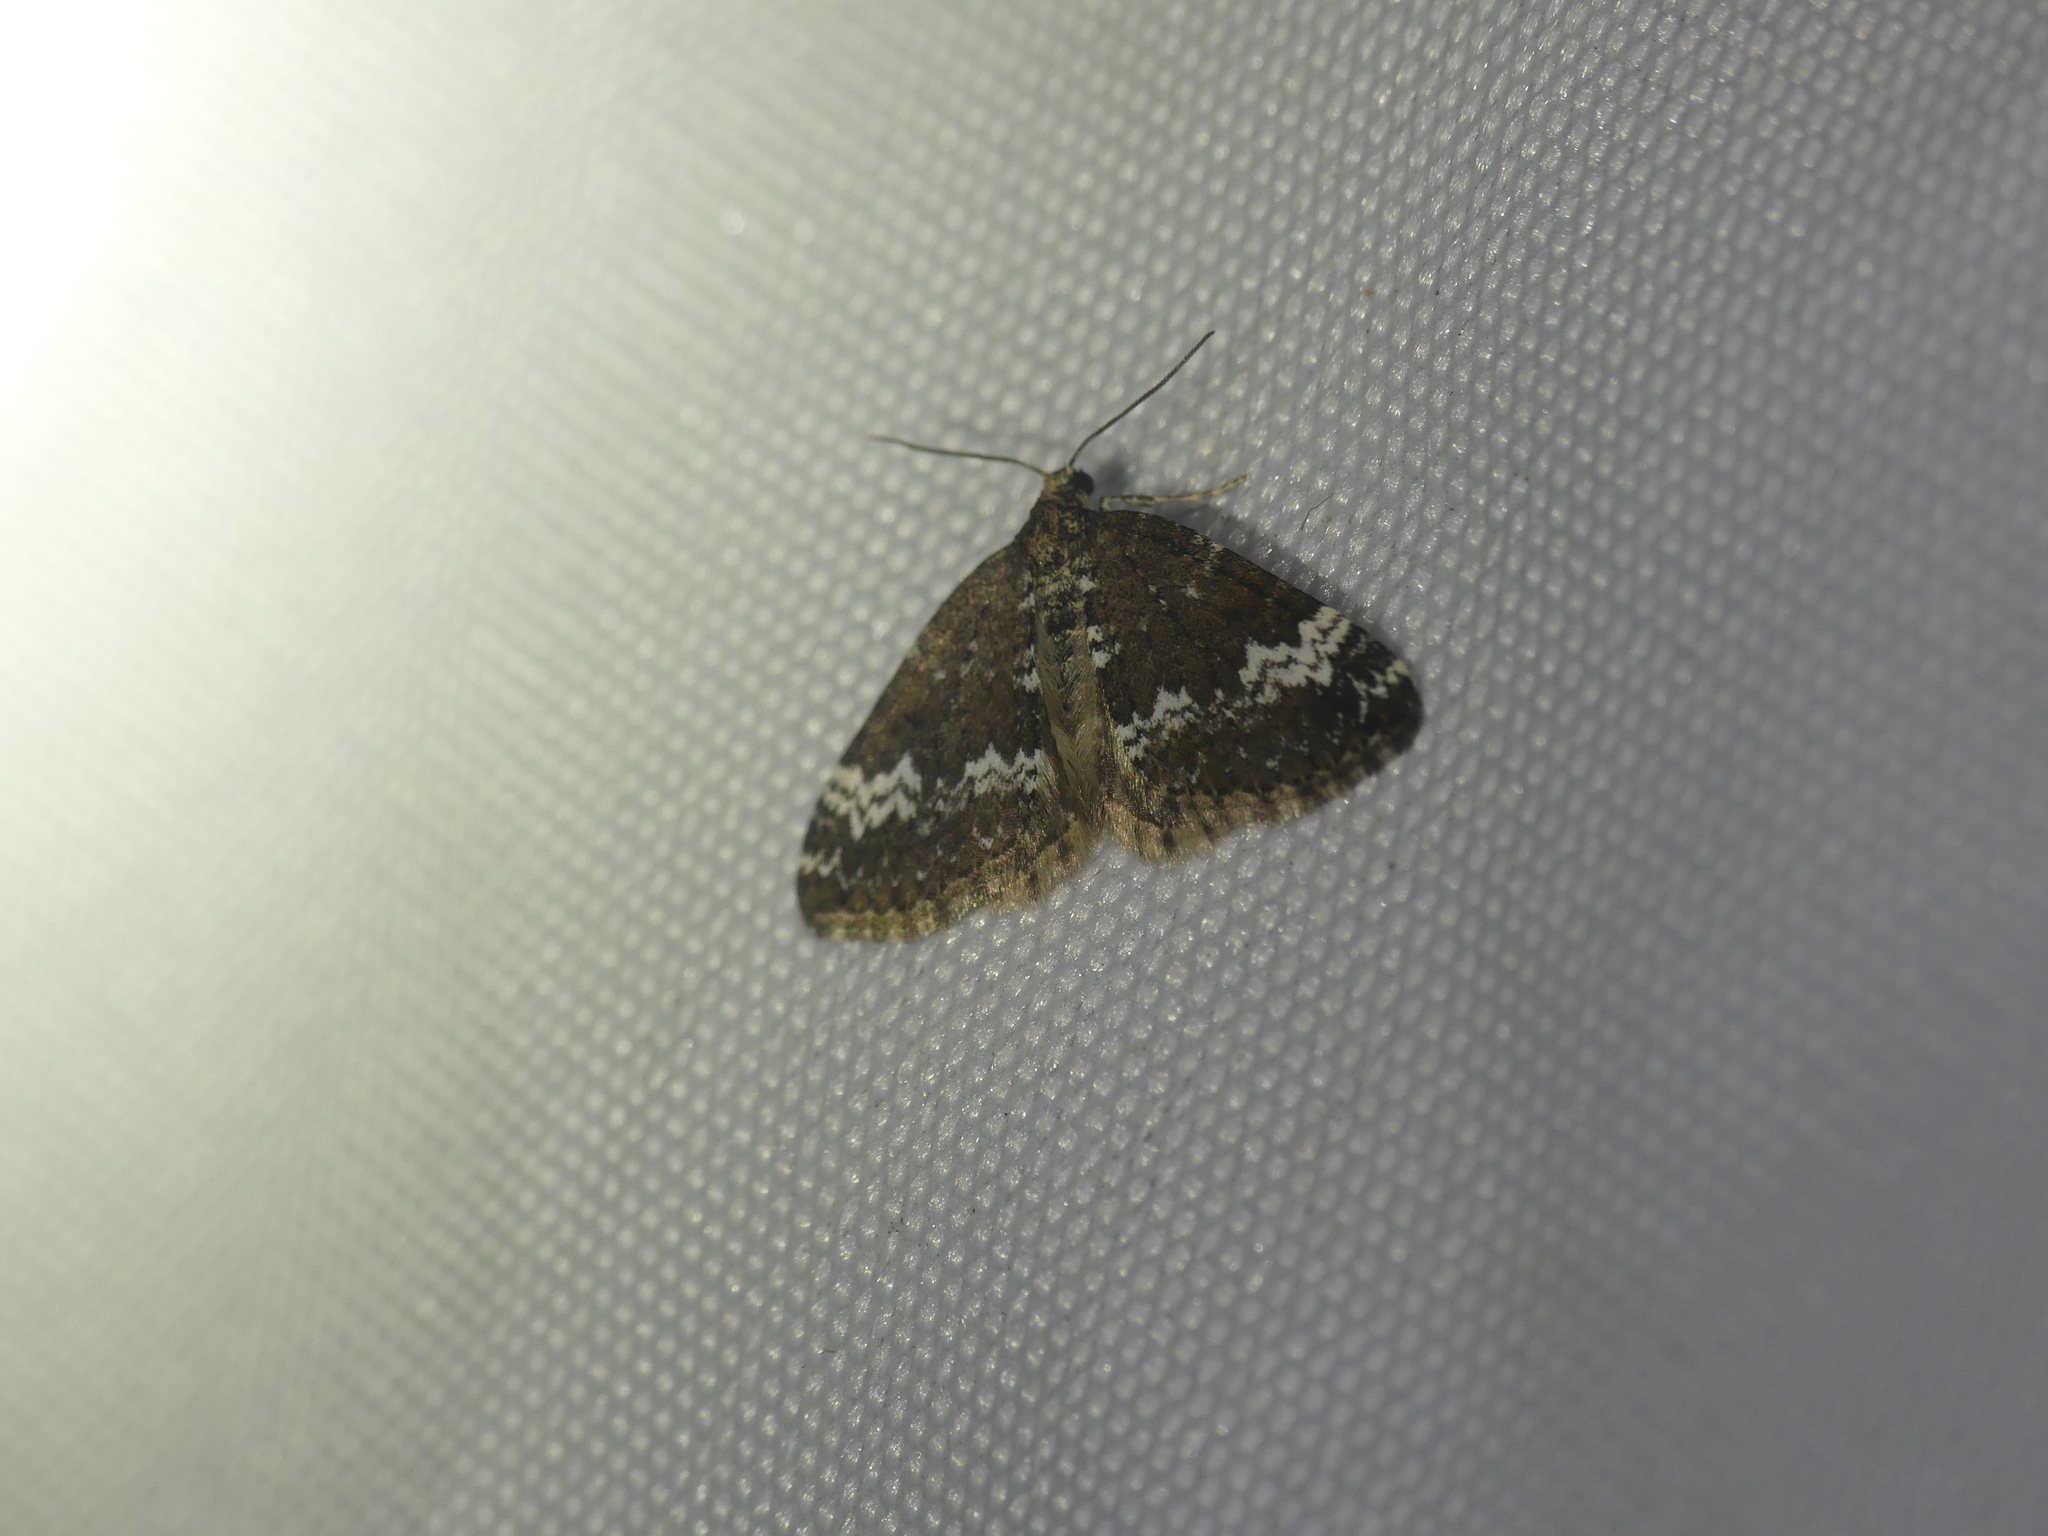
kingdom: Animalia
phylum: Arthropoda
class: Insecta
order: Lepidoptera
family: Geometridae
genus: Perizoma
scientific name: Perizoma alchemillata
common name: Small rivulet
